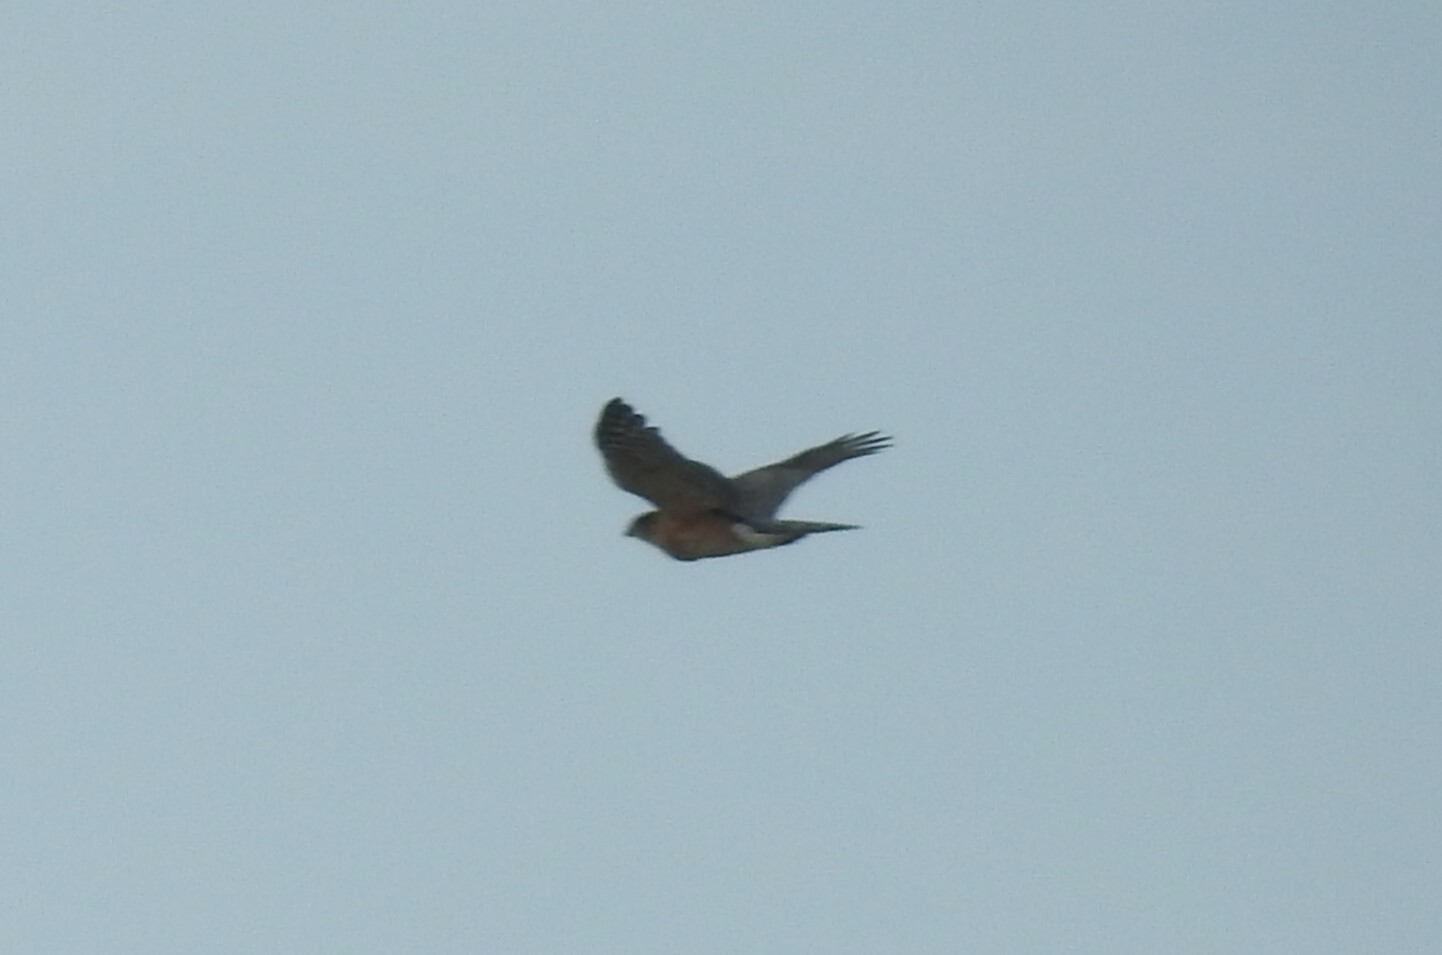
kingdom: Animalia
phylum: Chordata
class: Aves
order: Accipitriformes
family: Accipitridae
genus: Accipiter
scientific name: Accipiter cooperii
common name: Cooper's hawk
